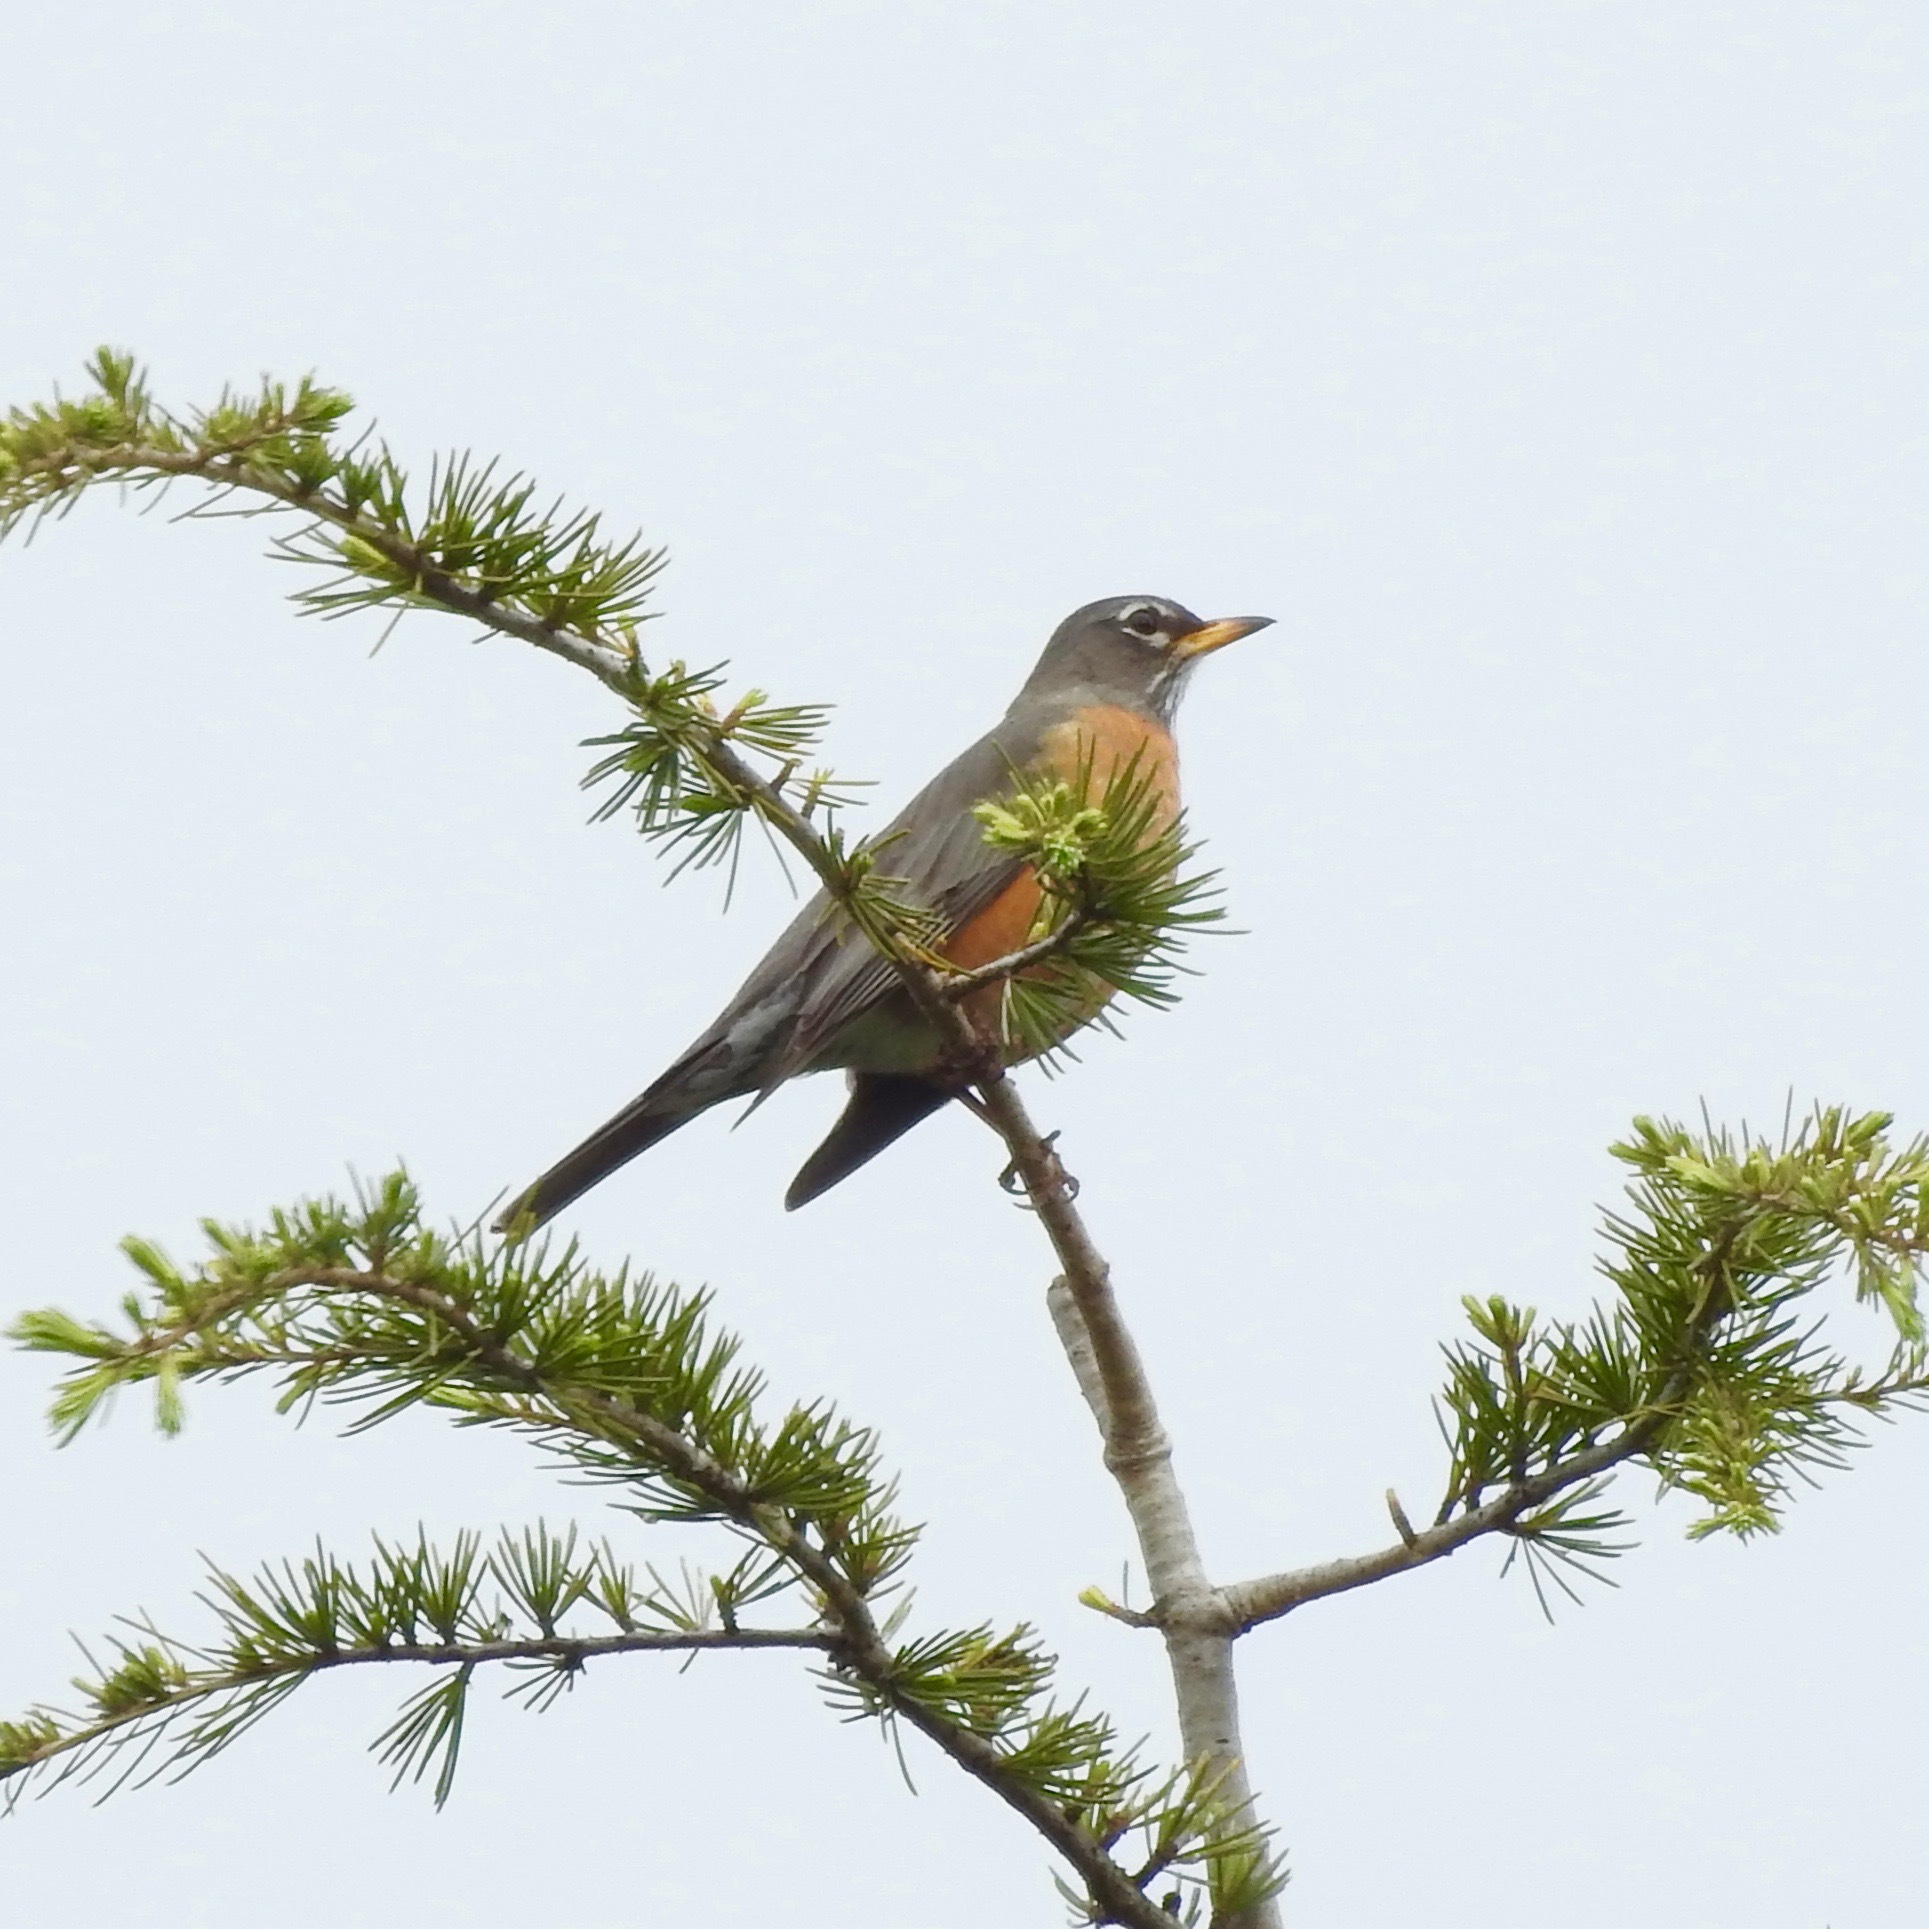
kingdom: Animalia
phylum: Chordata
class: Aves
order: Passeriformes
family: Turdidae
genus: Turdus
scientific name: Turdus migratorius
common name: American robin
